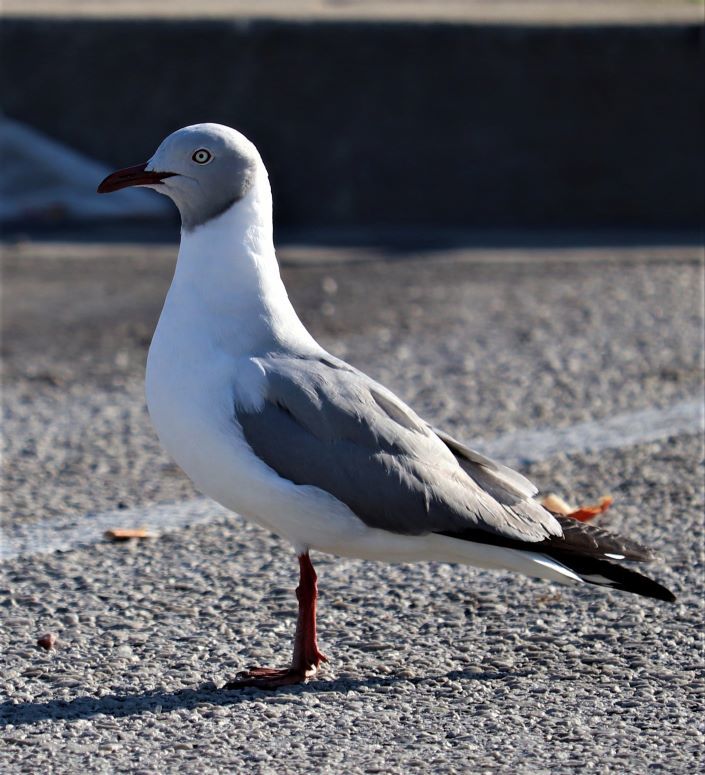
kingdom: Animalia
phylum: Chordata
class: Aves
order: Charadriiformes
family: Laridae
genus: Chroicocephalus
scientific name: Chroicocephalus cirrocephalus
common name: Grey-headed gull
